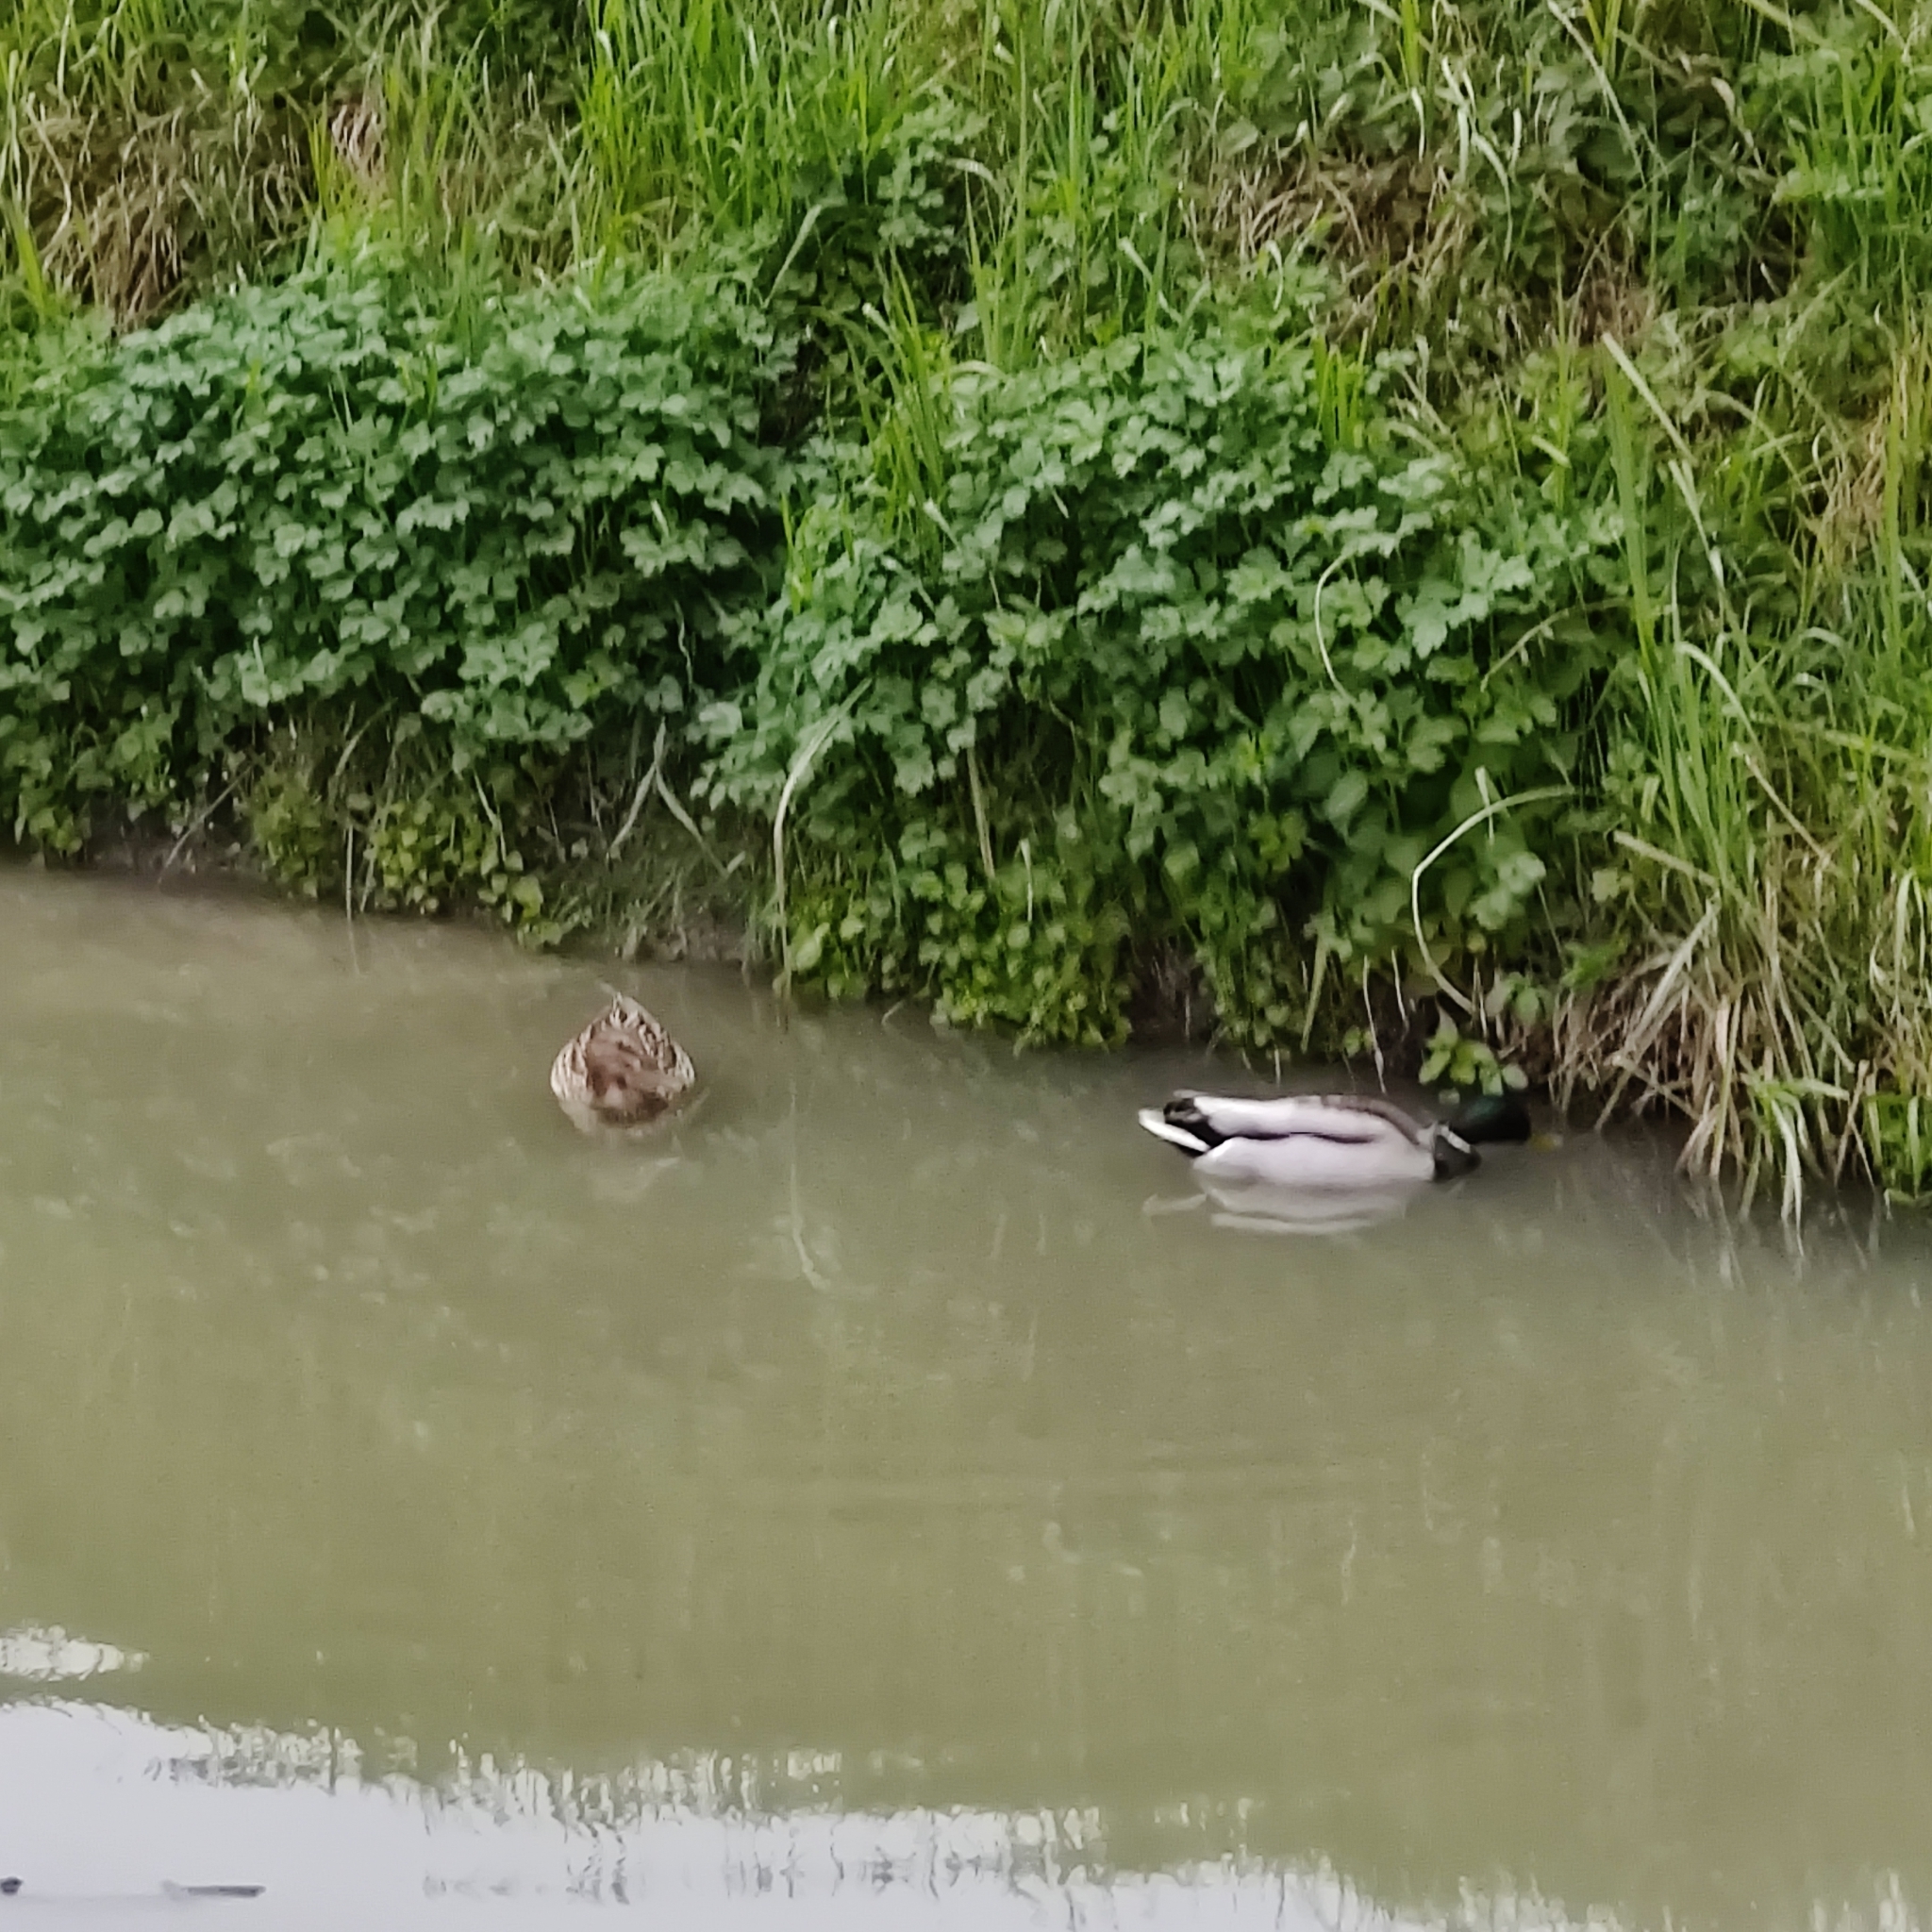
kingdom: Animalia
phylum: Chordata
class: Aves
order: Anseriformes
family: Anatidae
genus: Anas
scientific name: Anas platyrhynchos
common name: Mallard
